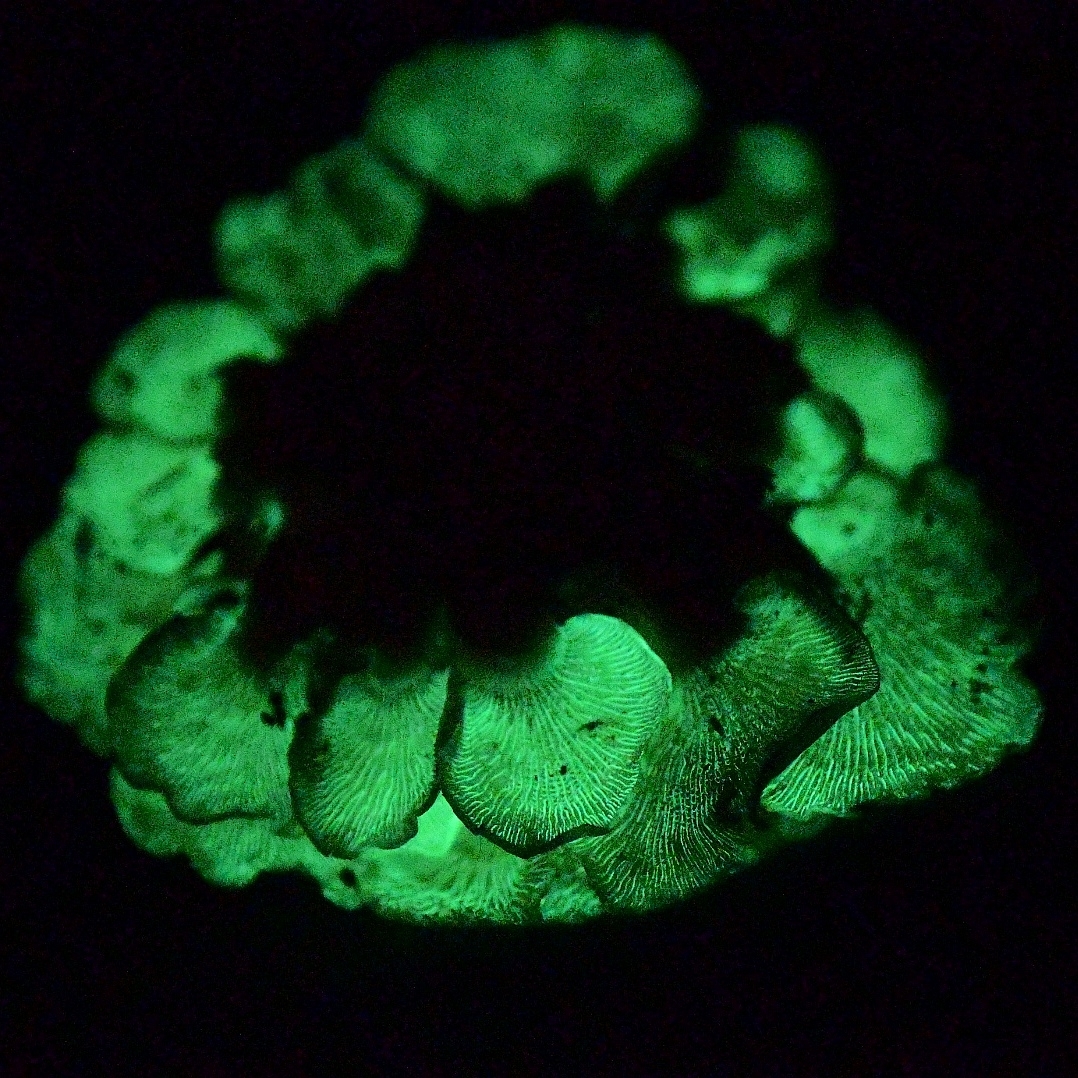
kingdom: Fungi
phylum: Basidiomycota
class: Agaricomycetes
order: Agaricales
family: Mycenaceae
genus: Panellus
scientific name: Panellus stipticus
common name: Bitter oysterling
